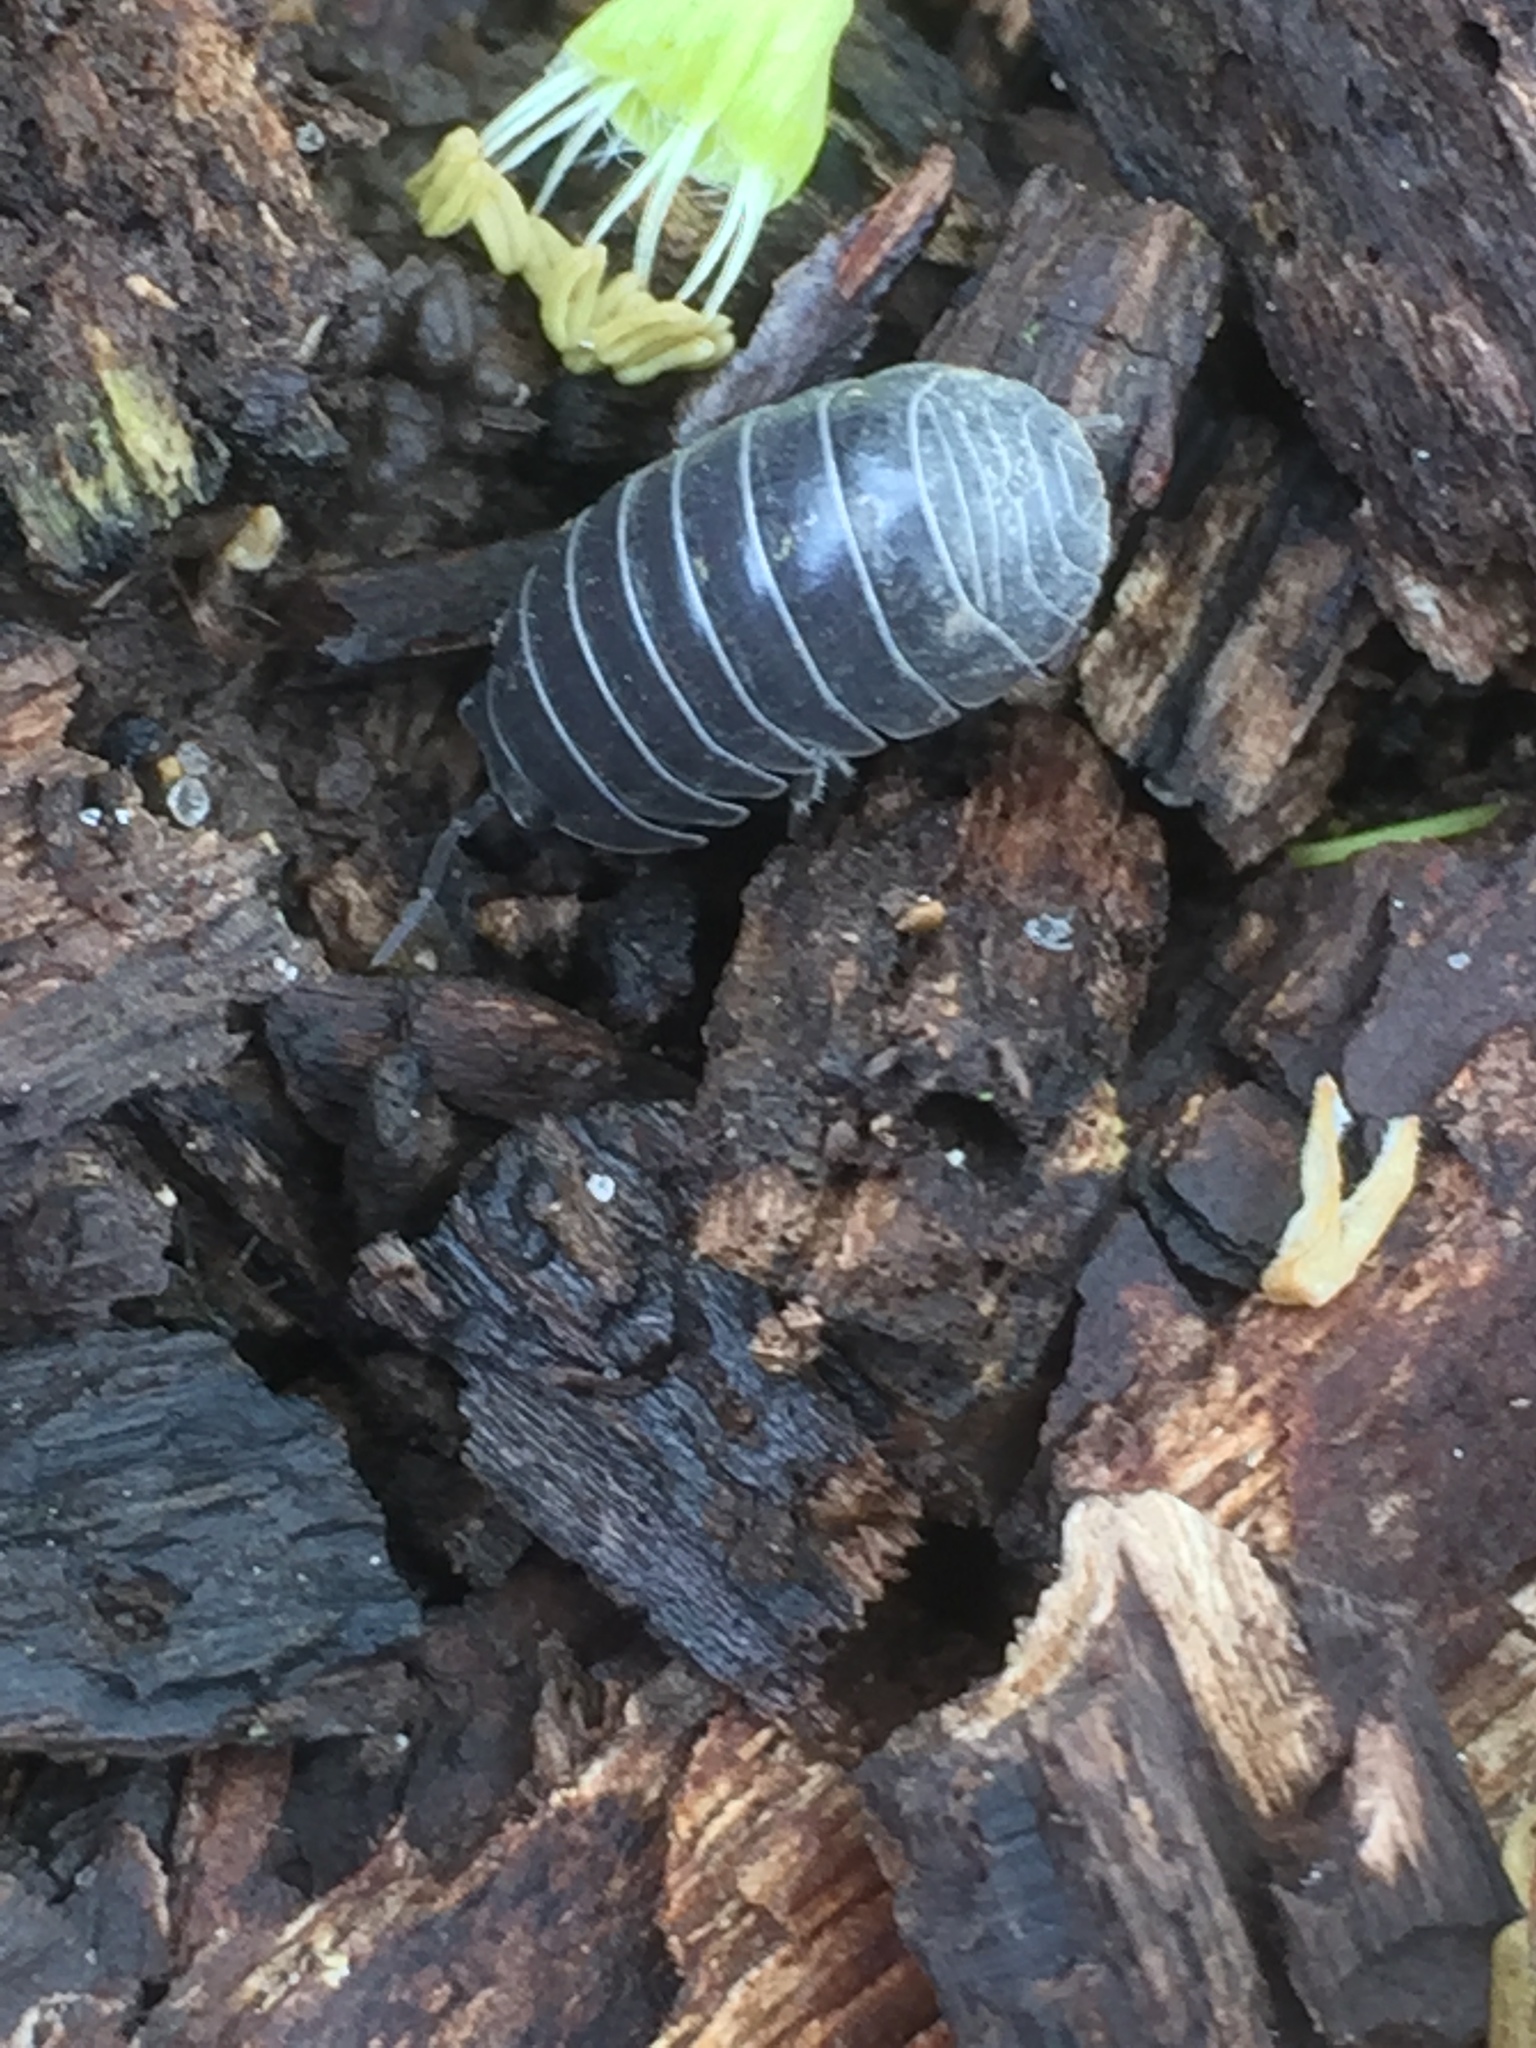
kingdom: Animalia
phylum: Arthropoda
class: Malacostraca
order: Isopoda
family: Armadillidiidae
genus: Armadillidium
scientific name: Armadillidium vulgare
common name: Common pill woodlouse
